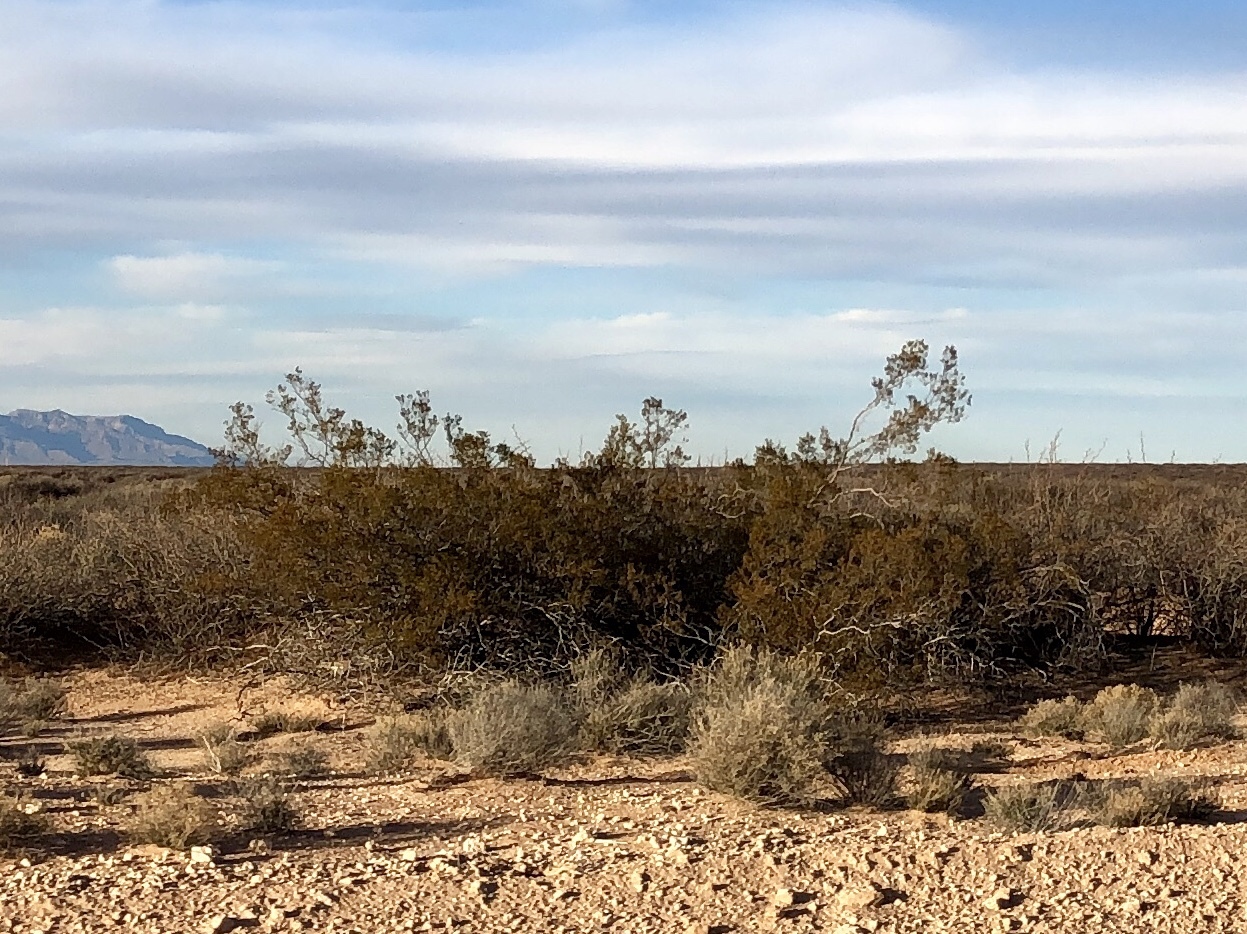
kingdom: Plantae
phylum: Tracheophyta
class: Magnoliopsida
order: Zygophyllales
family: Zygophyllaceae
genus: Larrea
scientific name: Larrea tridentata
